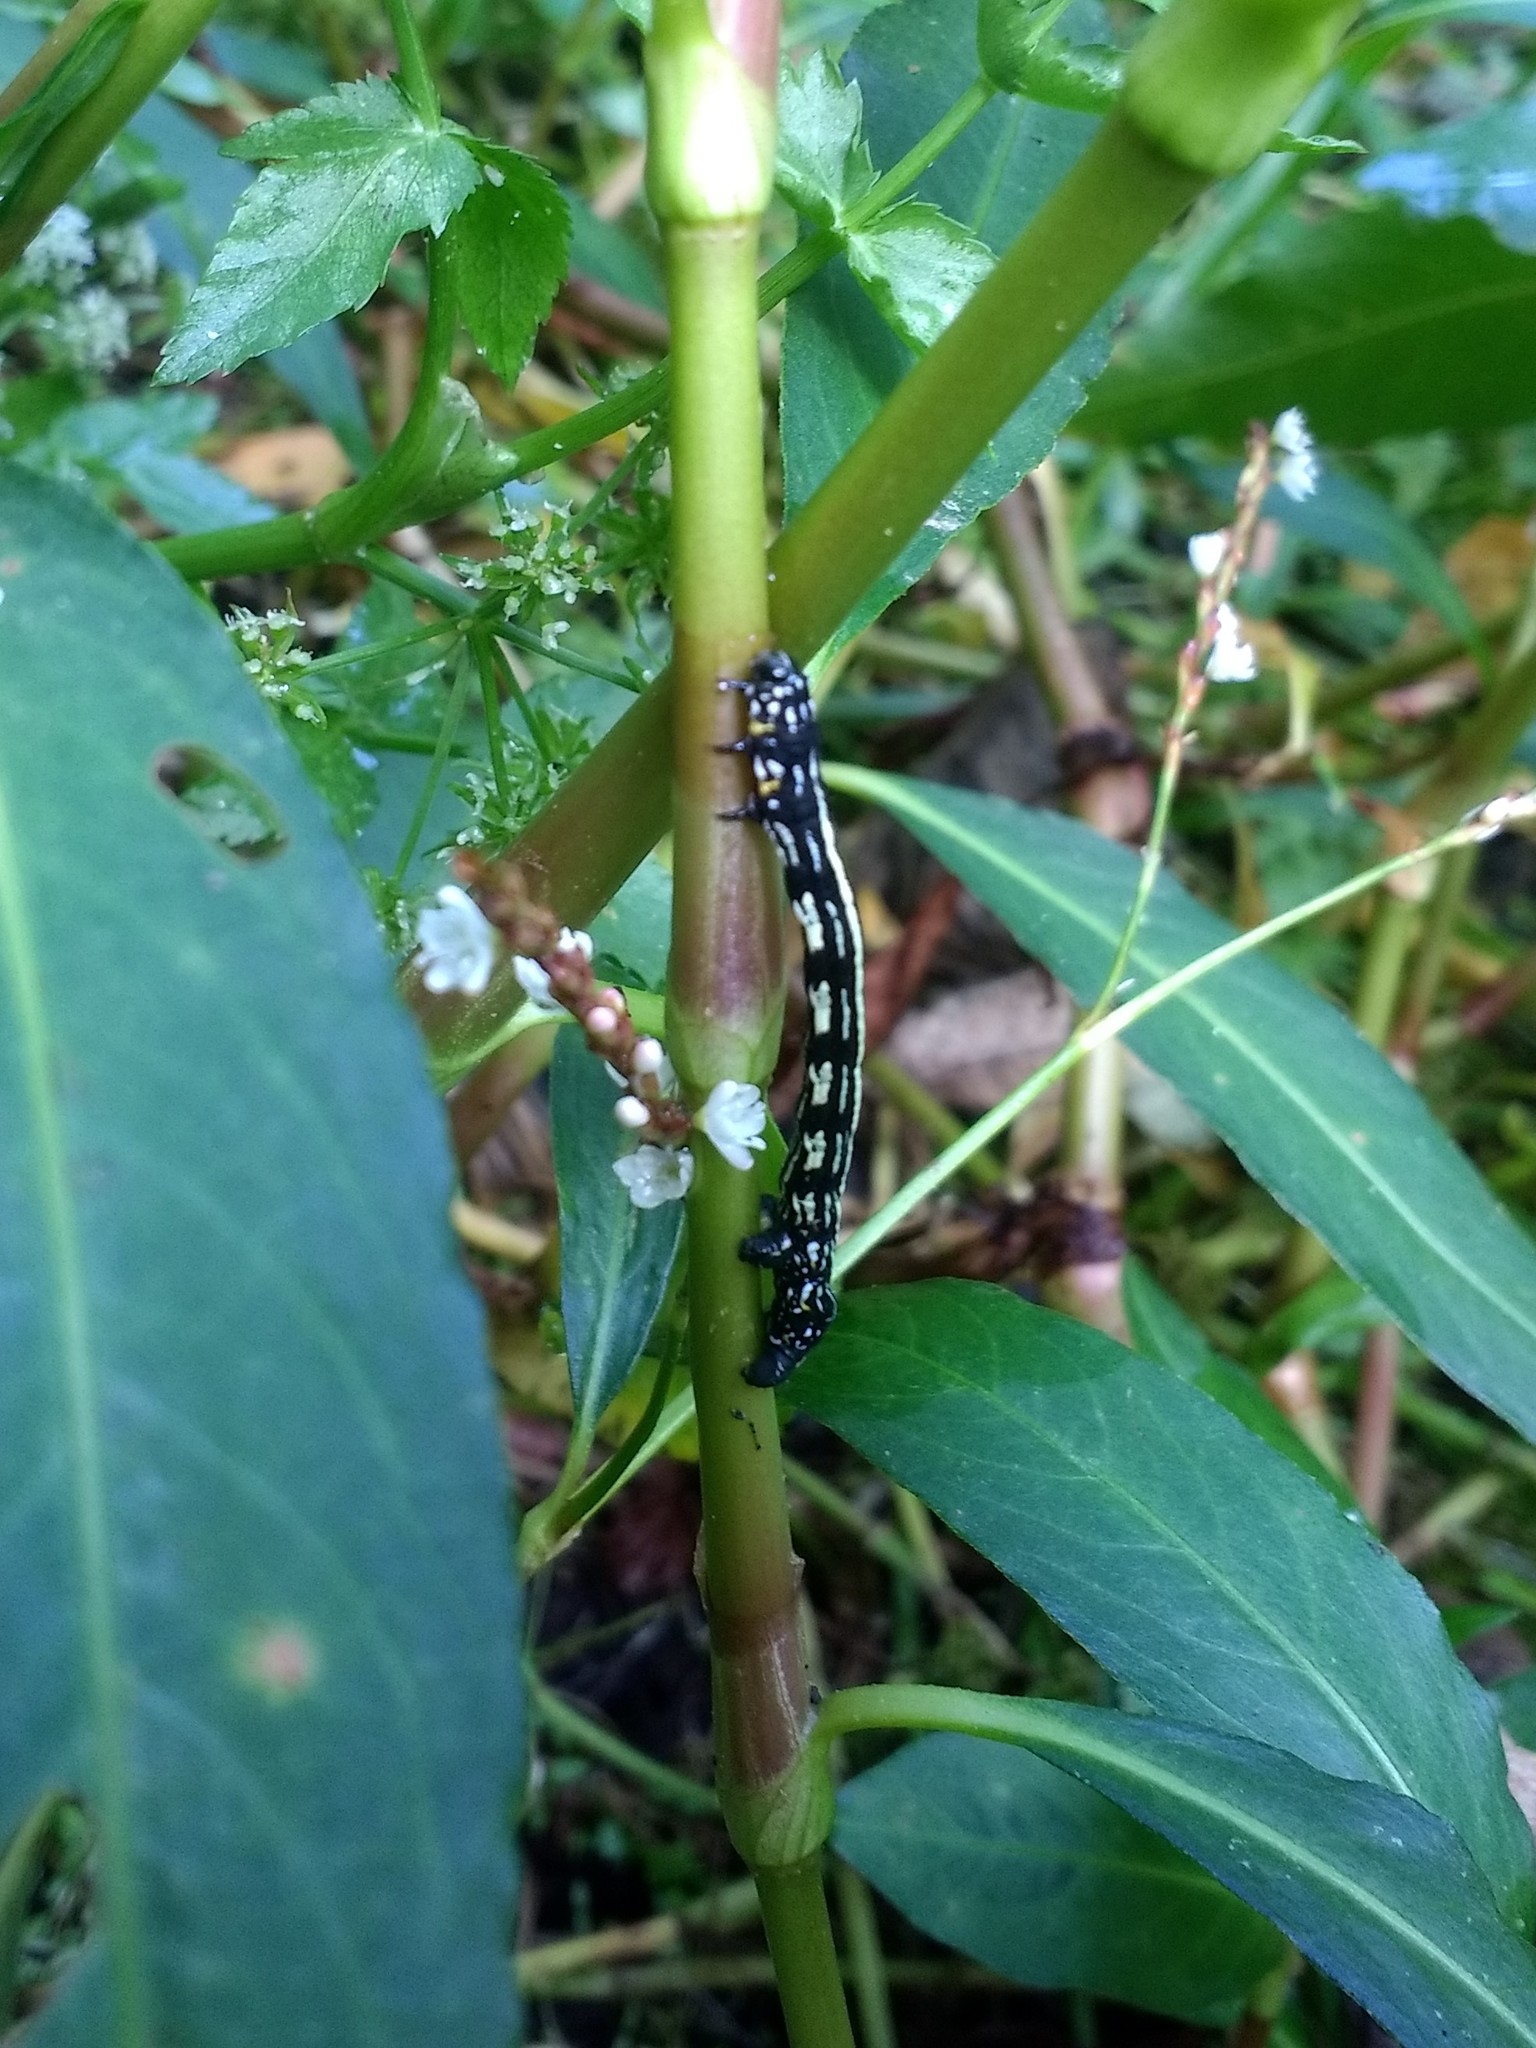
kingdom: Animalia
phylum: Arthropoda
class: Insecta
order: Lepidoptera
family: Geometridae
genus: Acronyctodes
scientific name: Acronyctodes mexicanaria
